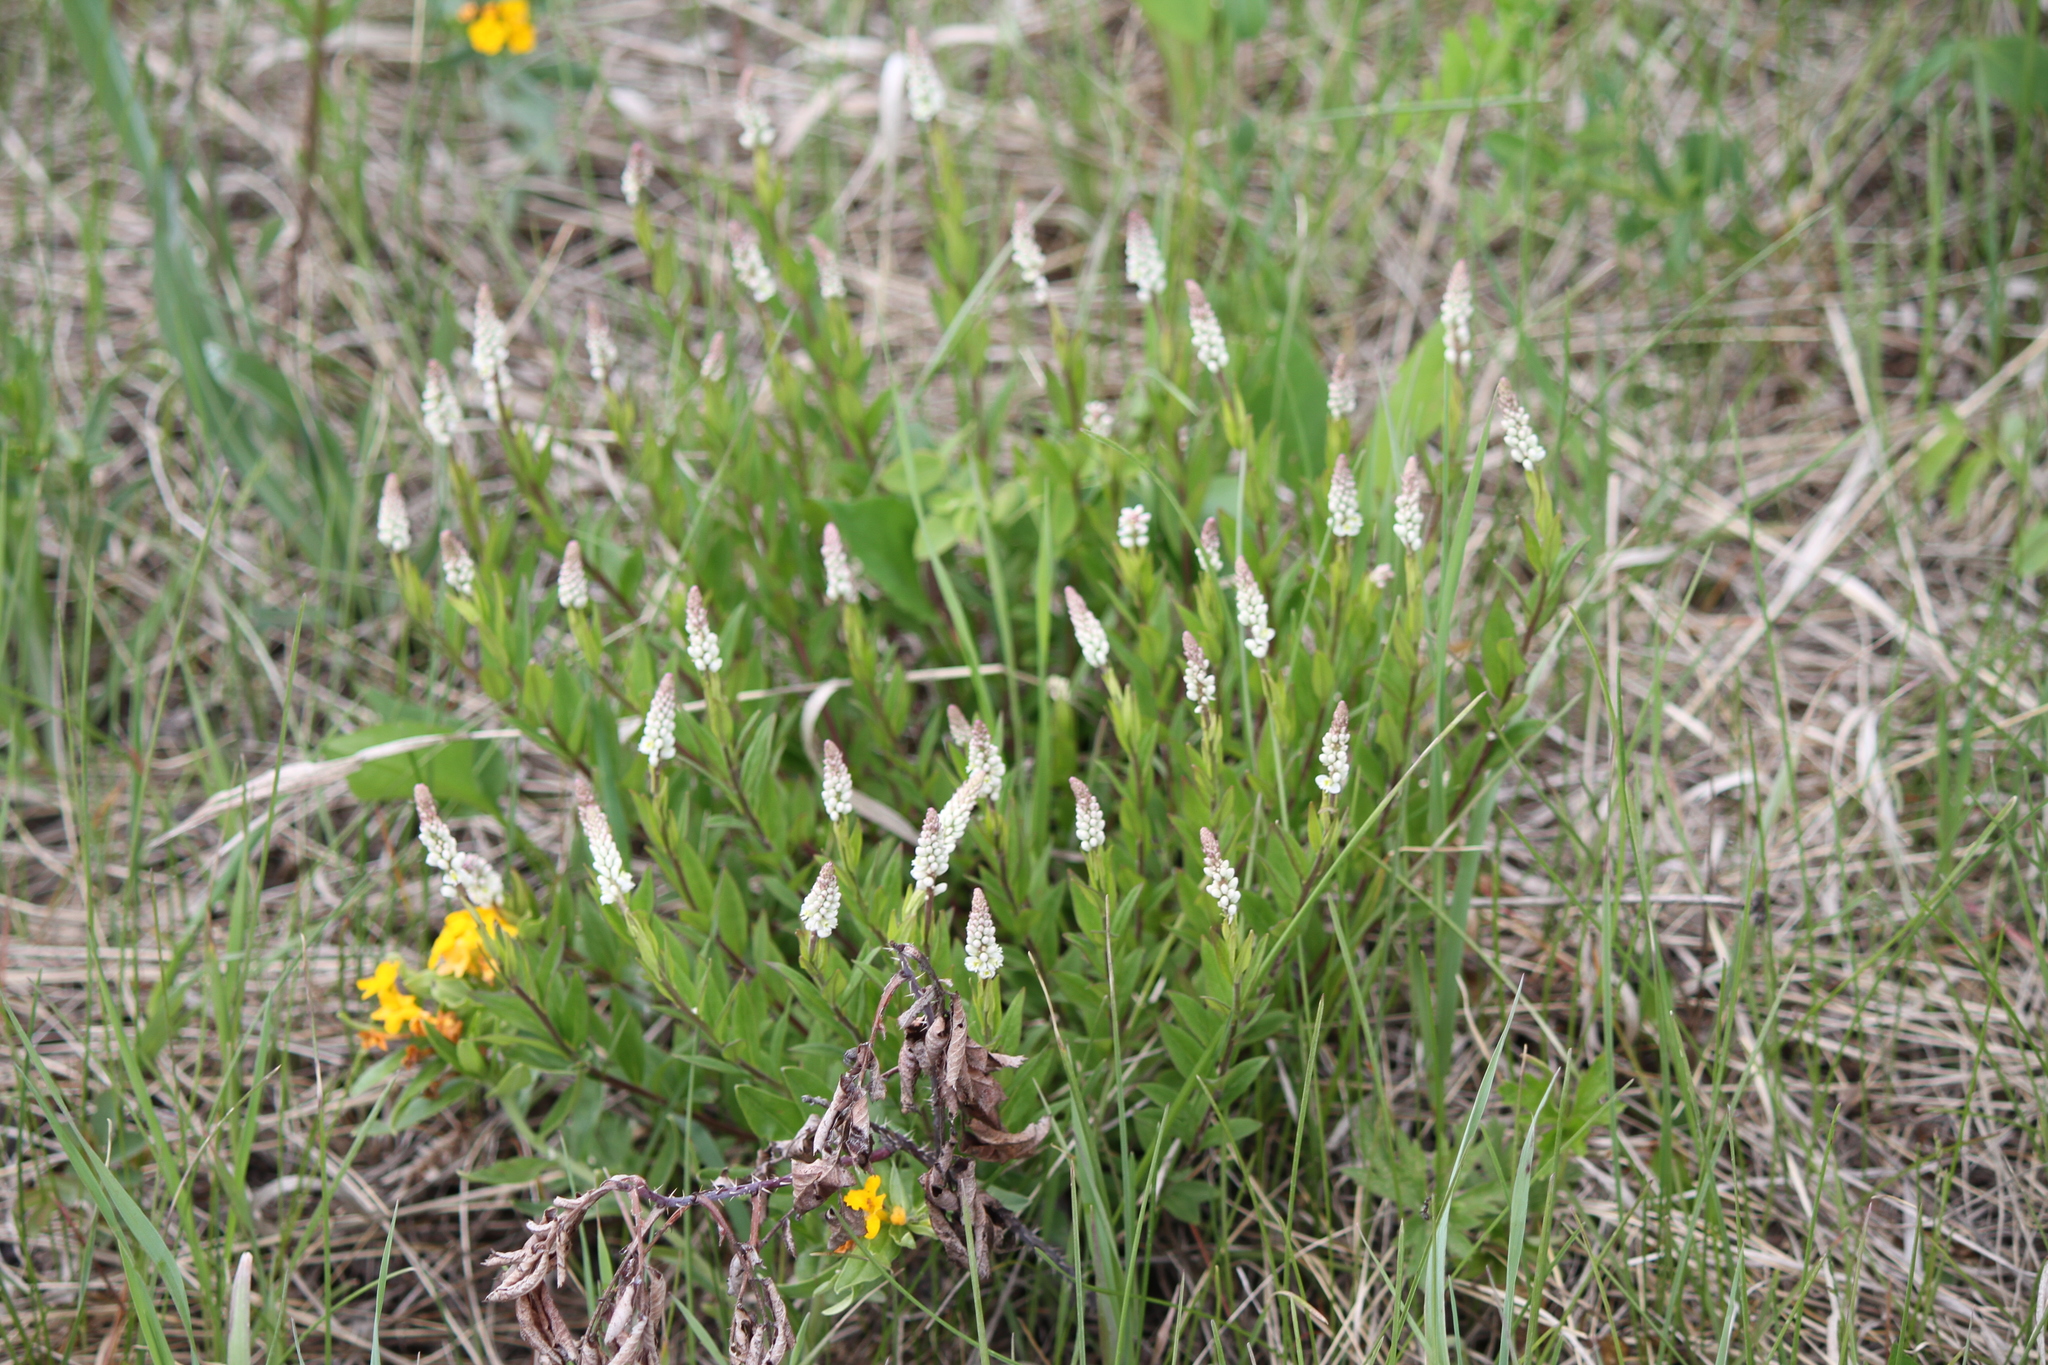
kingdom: Plantae
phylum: Tracheophyta
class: Magnoliopsida
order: Fabales
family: Polygalaceae
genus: Polygala
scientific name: Polygala senega
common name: Seneca snakeroot
